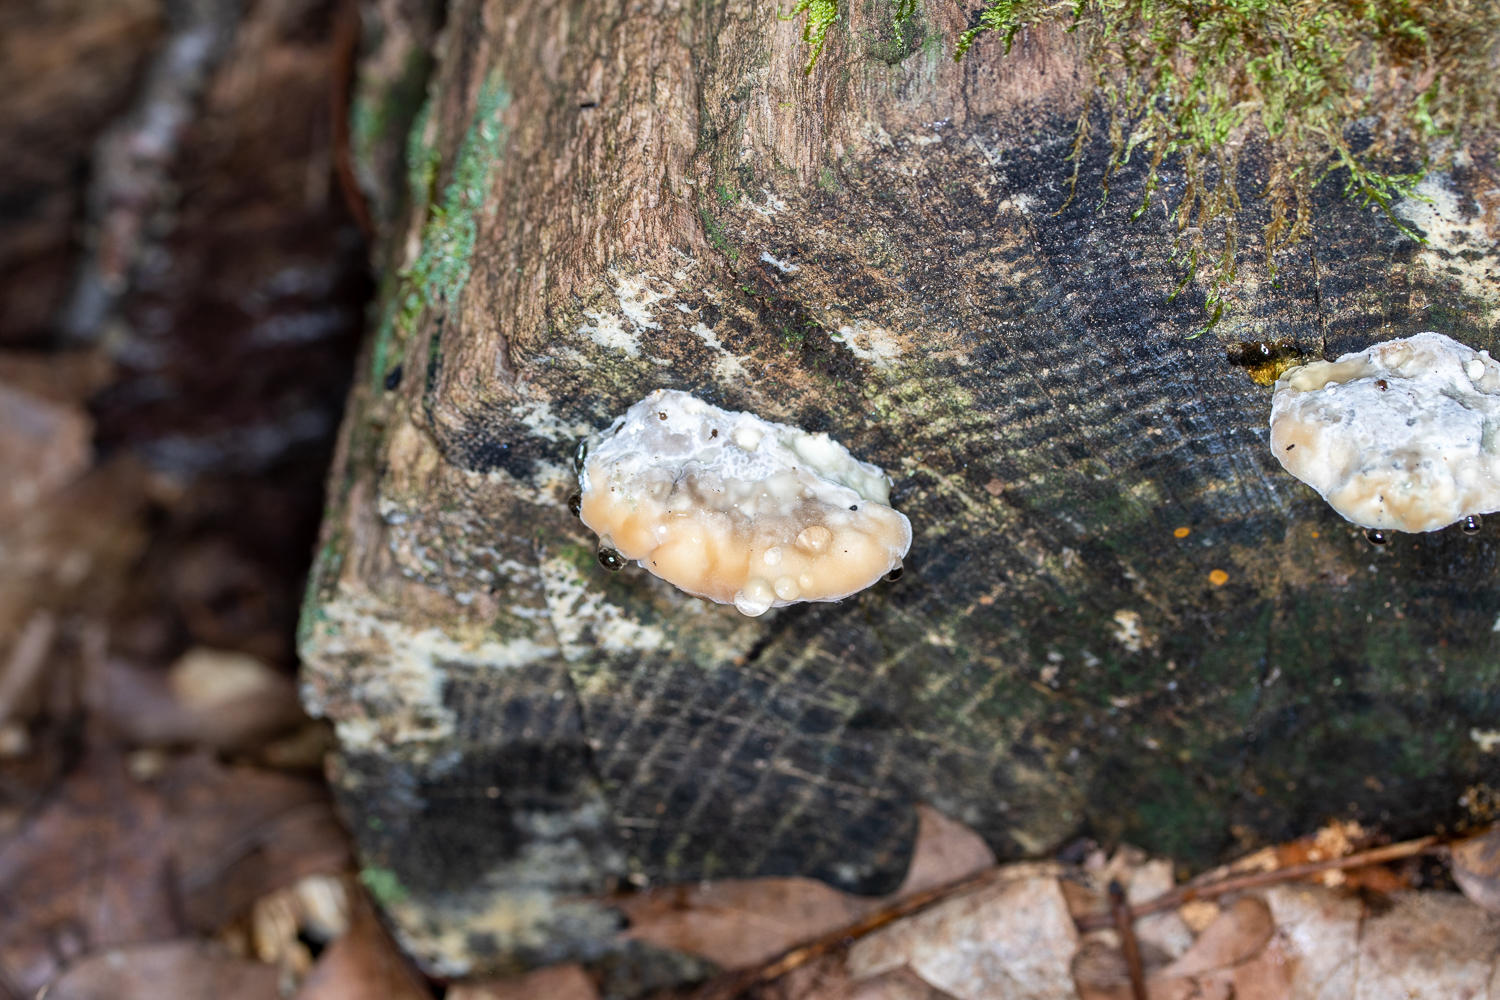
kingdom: Fungi
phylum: Basidiomycota
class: Agaricomycetes
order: Polyporales
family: Fomitopsidaceae
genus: Niveoporofomes
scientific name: Niveoporofomes spraguei
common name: Green cheese polypore
